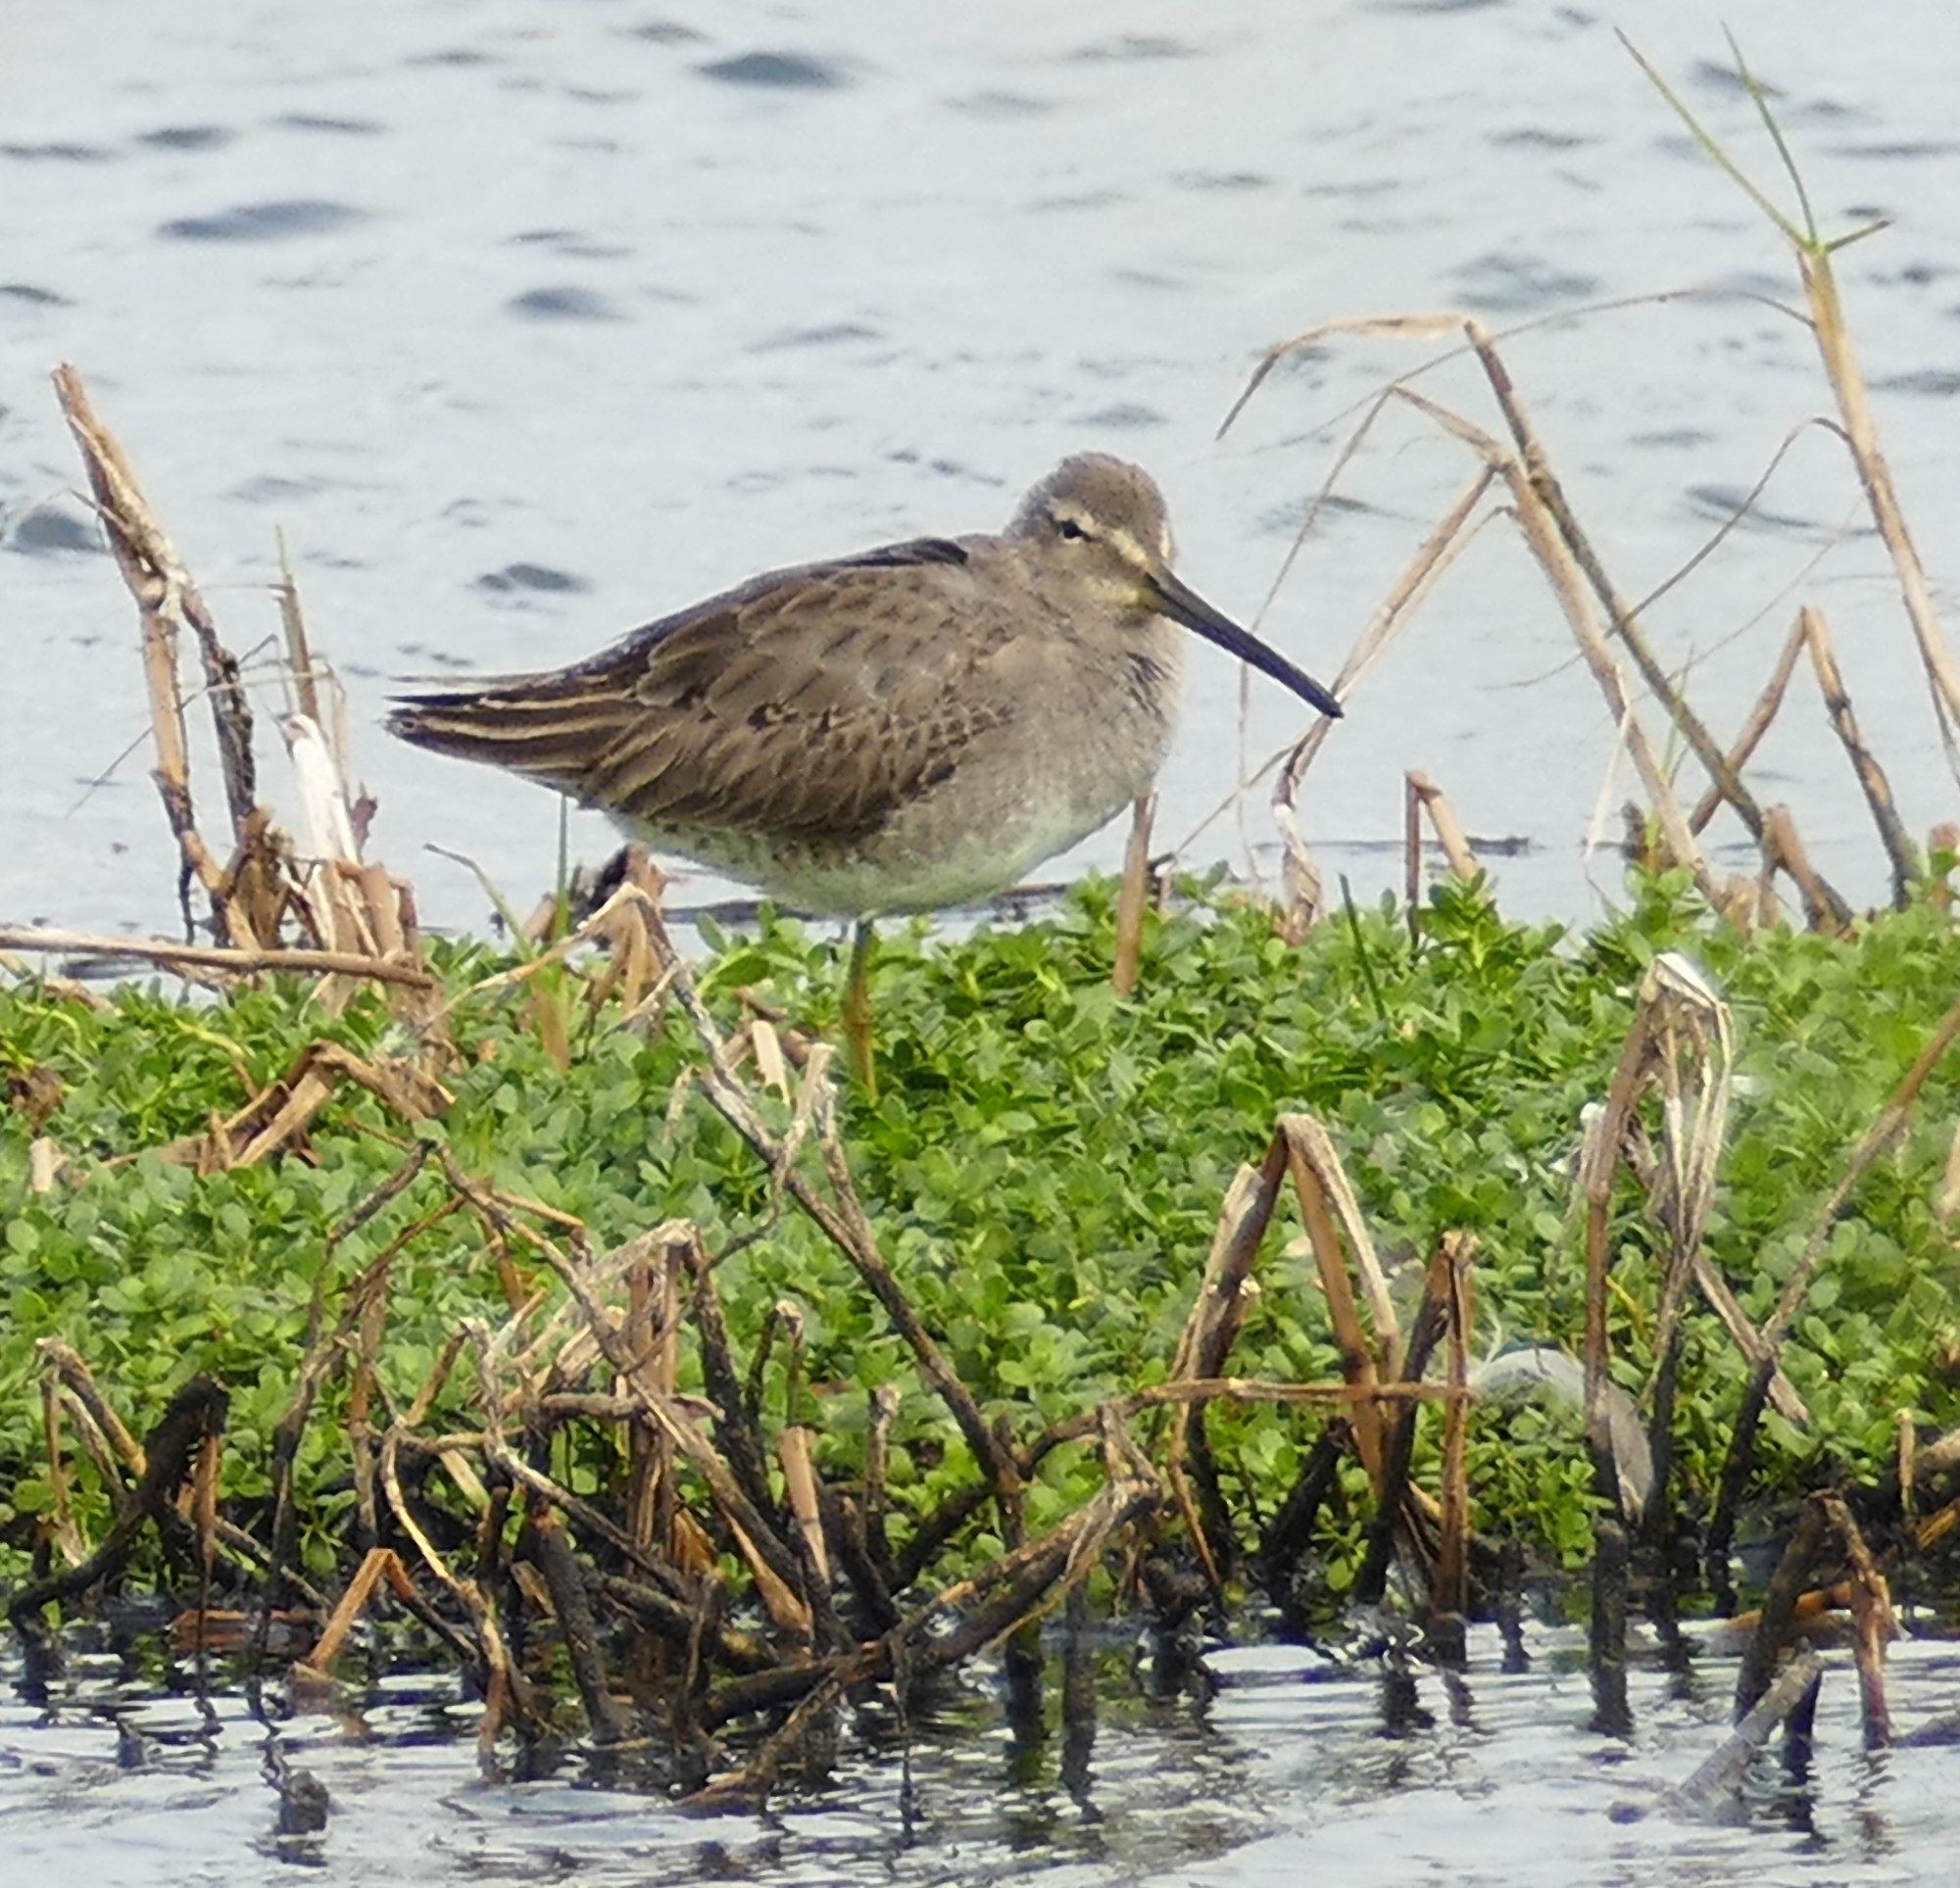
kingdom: Animalia
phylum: Chordata
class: Aves
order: Charadriiformes
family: Scolopacidae
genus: Limnodromus
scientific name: Limnodromus scolopaceus
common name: Long-billed dowitcher
